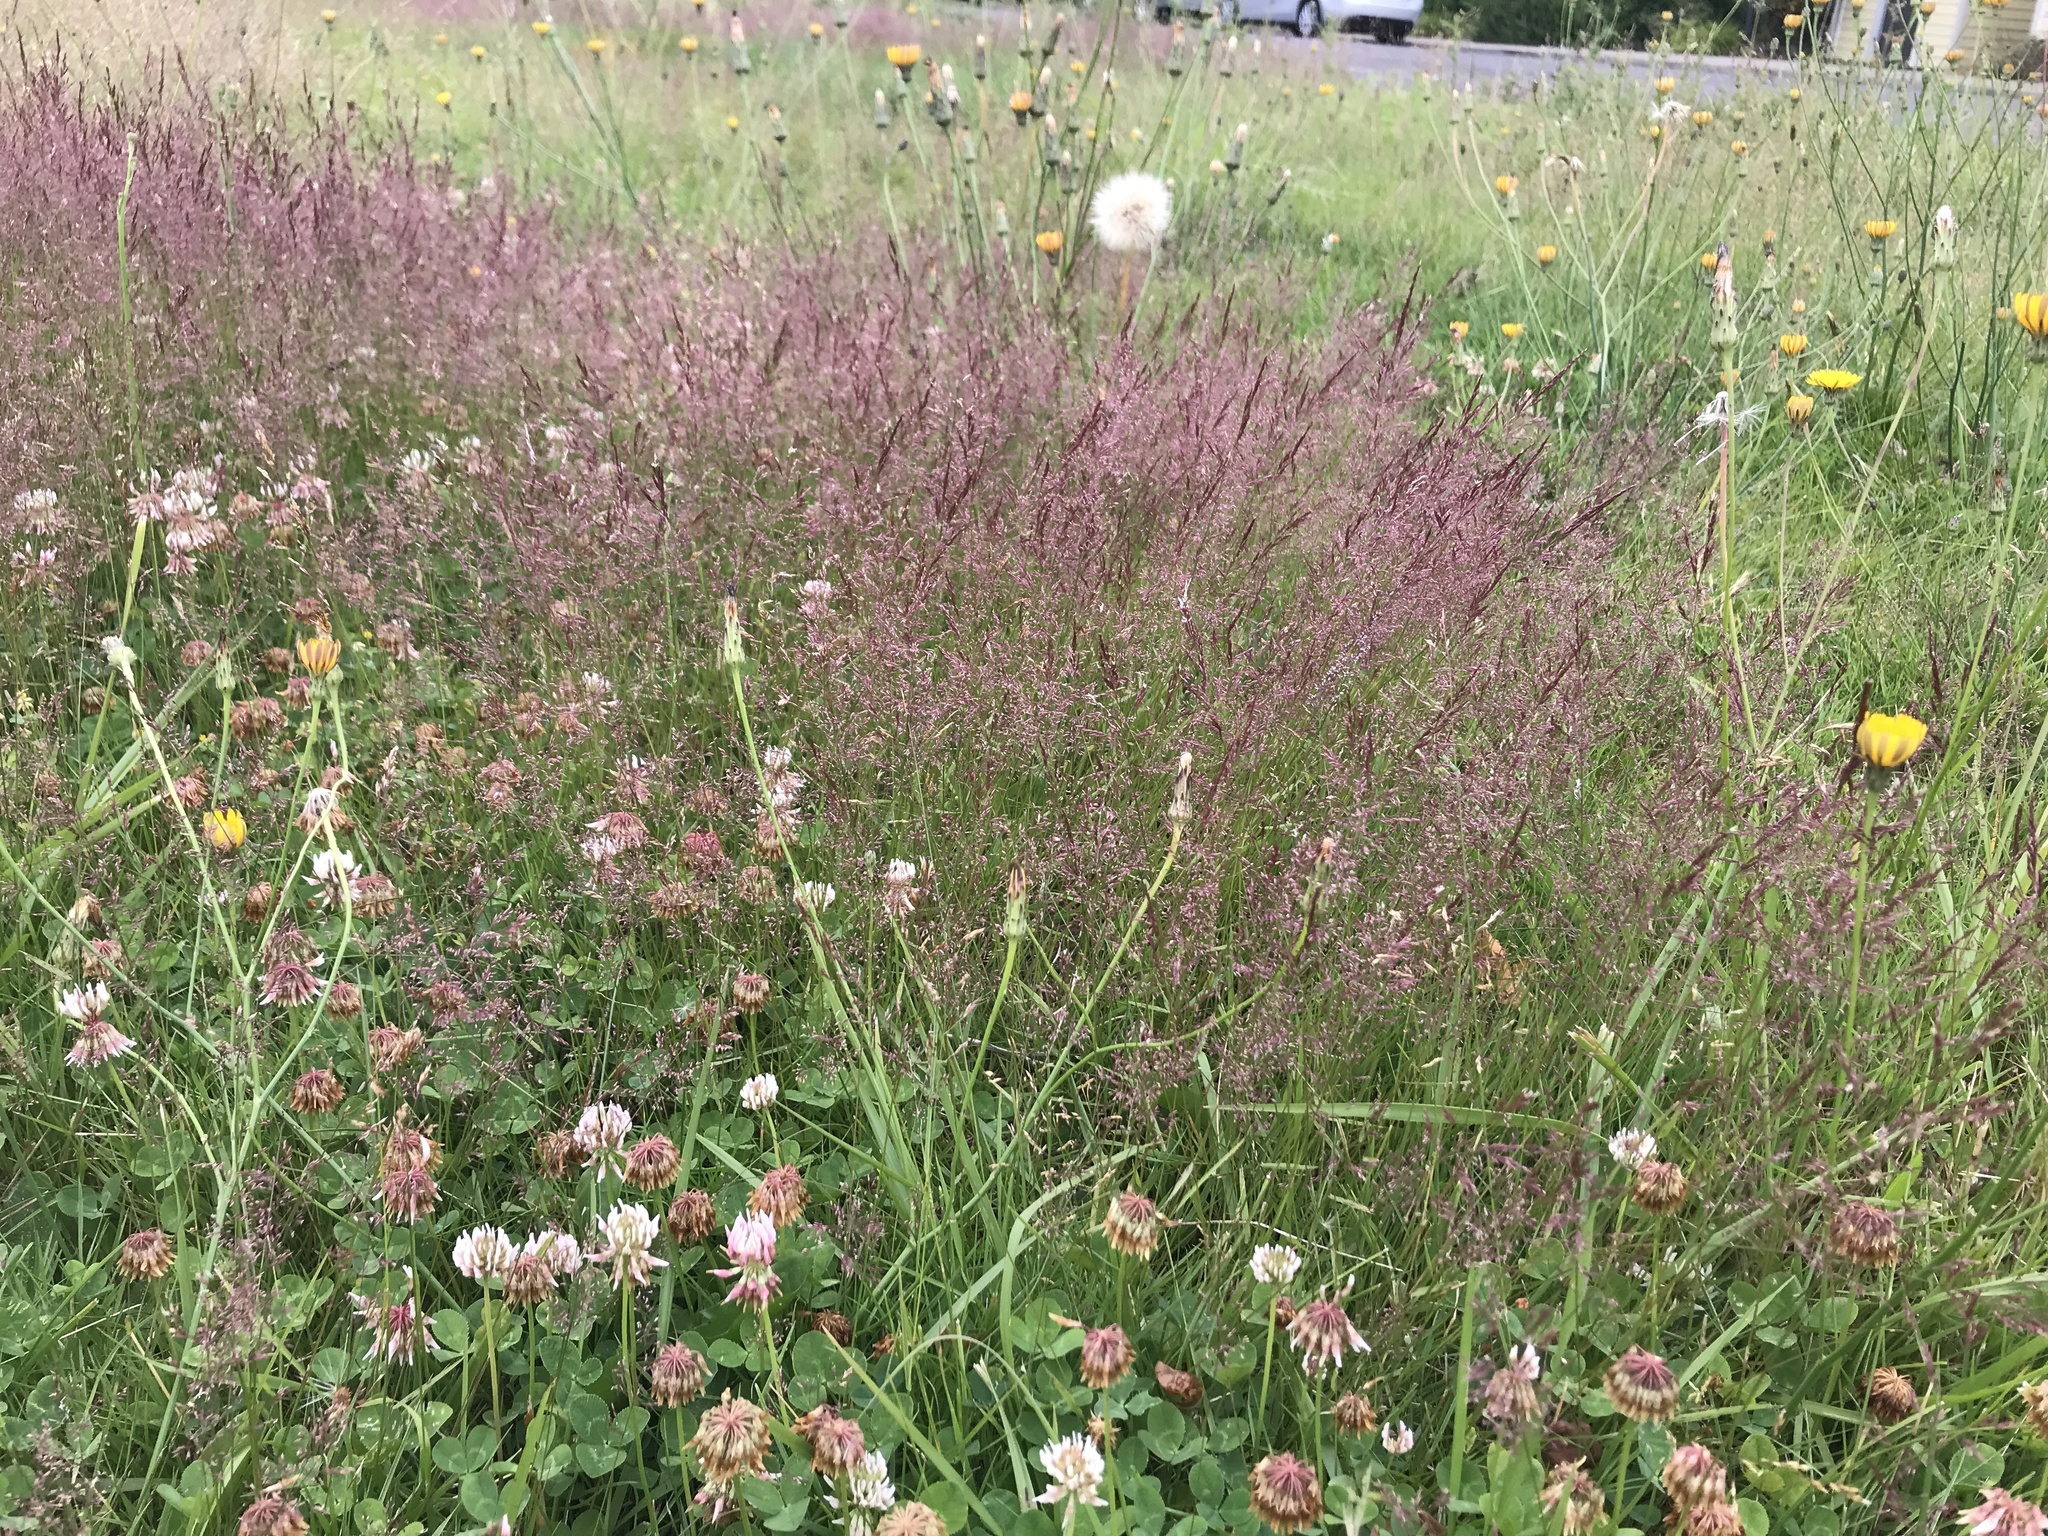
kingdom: Plantae
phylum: Tracheophyta
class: Liliopsida
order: Poales
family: Poaceae
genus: Agrostis
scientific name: Agrostis gigantea
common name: Black bent
